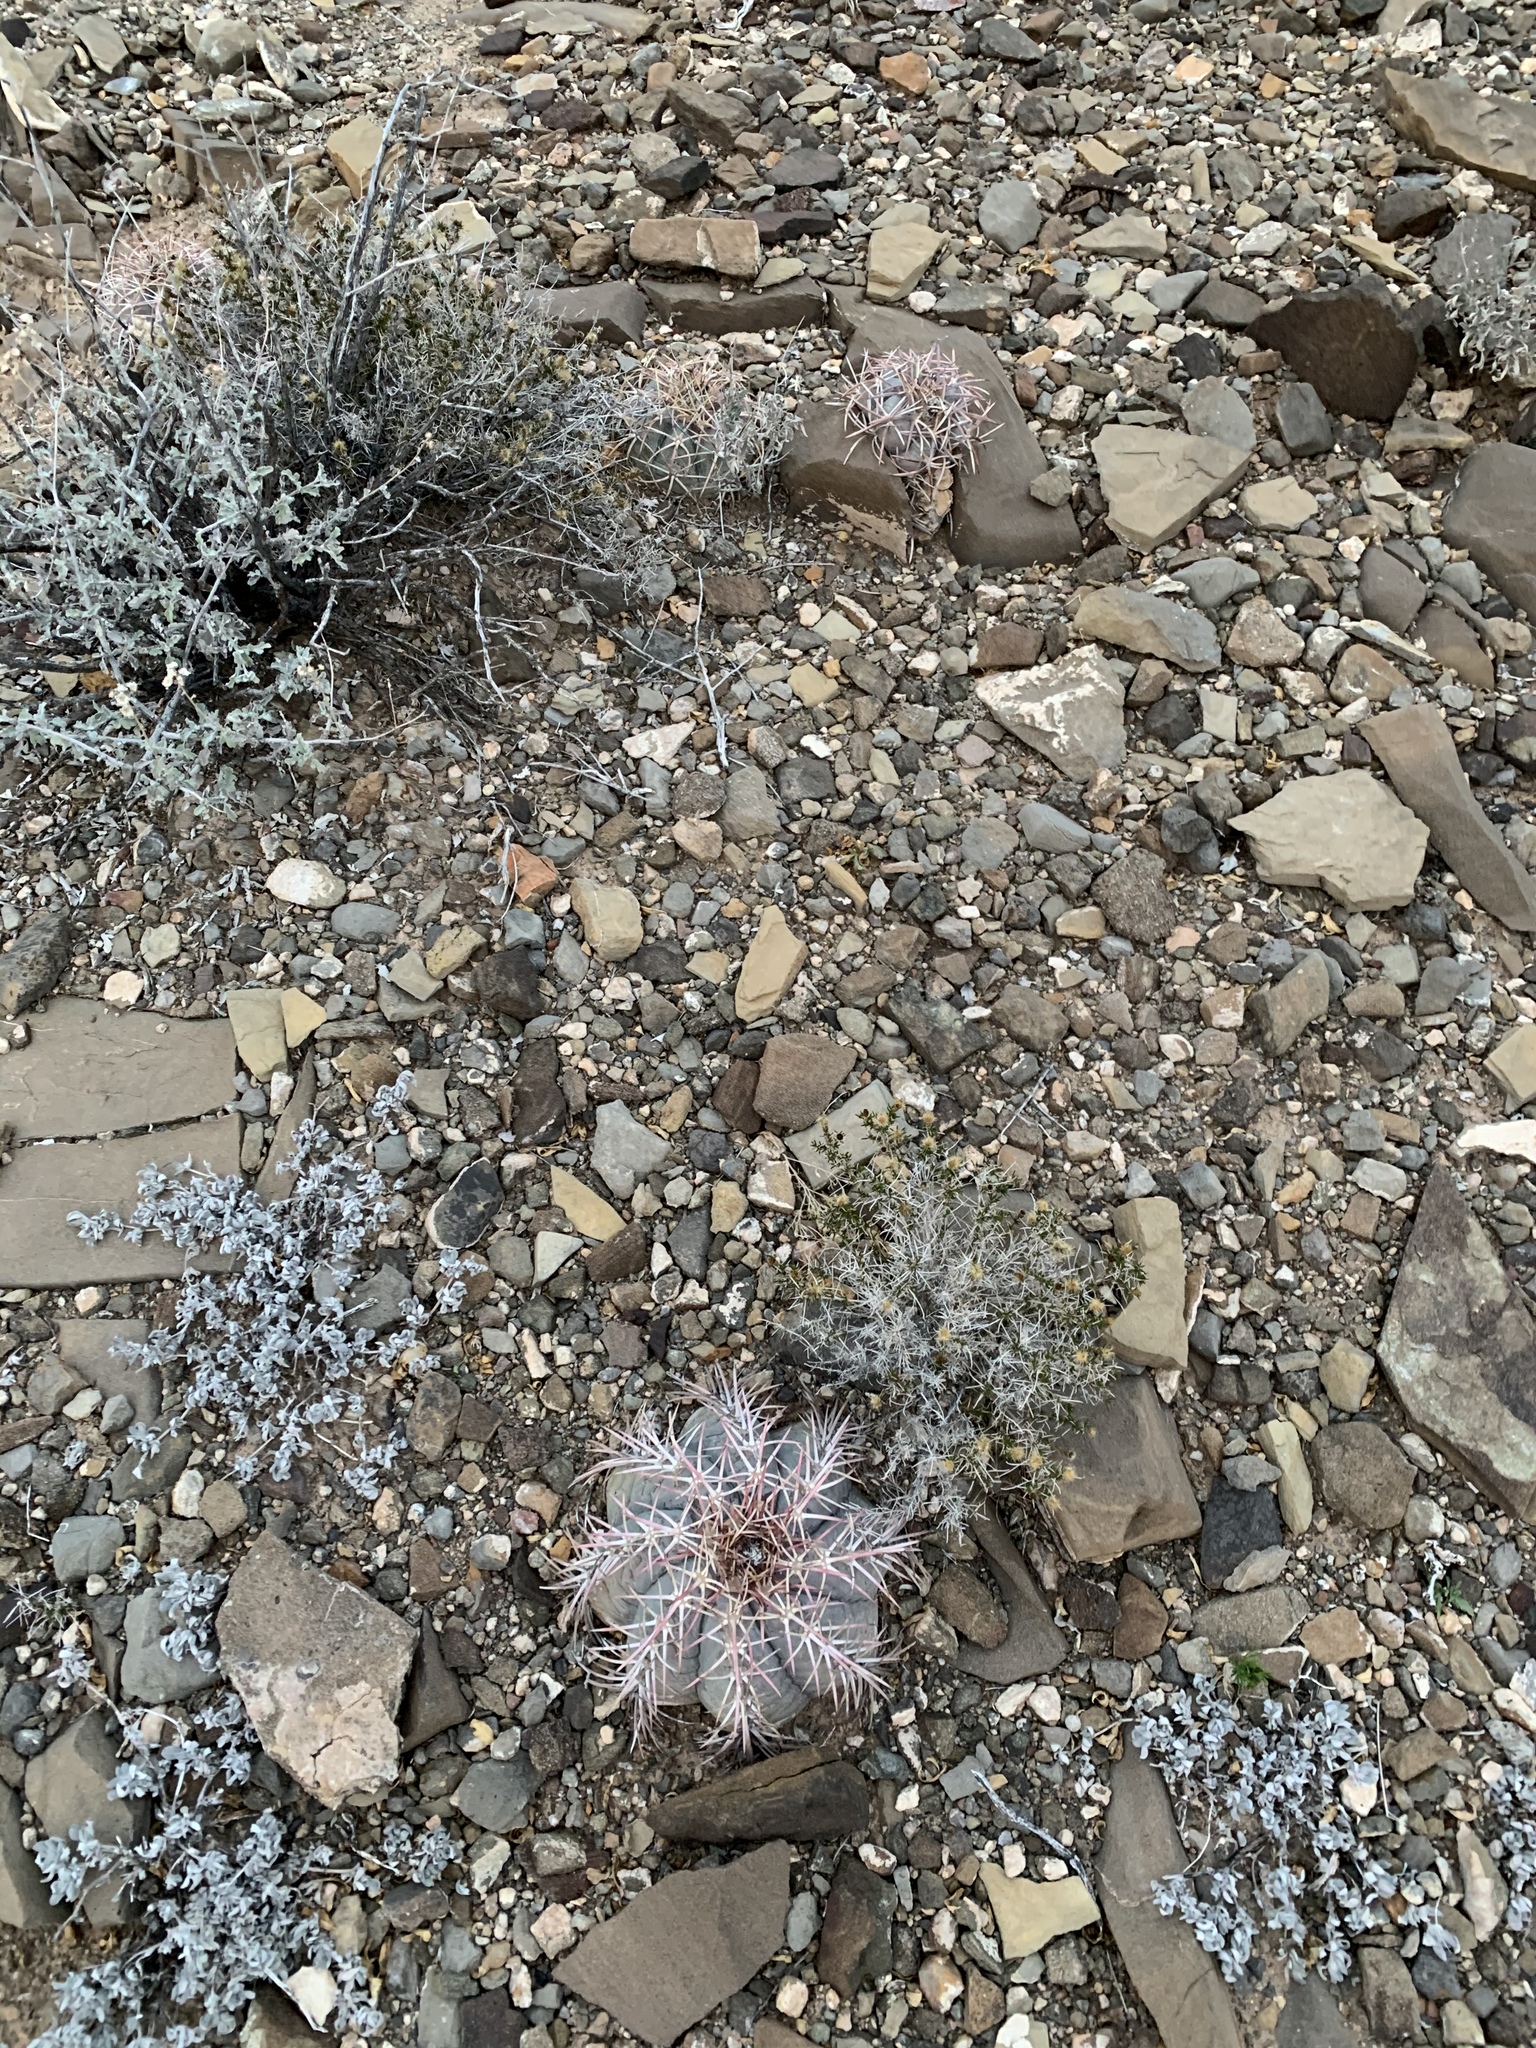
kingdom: Plantae
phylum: Tracheophyta
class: Magnoliopsida
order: Caryophyllales
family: Cactaceae
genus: Echinocactus
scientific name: Echinocactus horizonthalonius
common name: Devilshead
